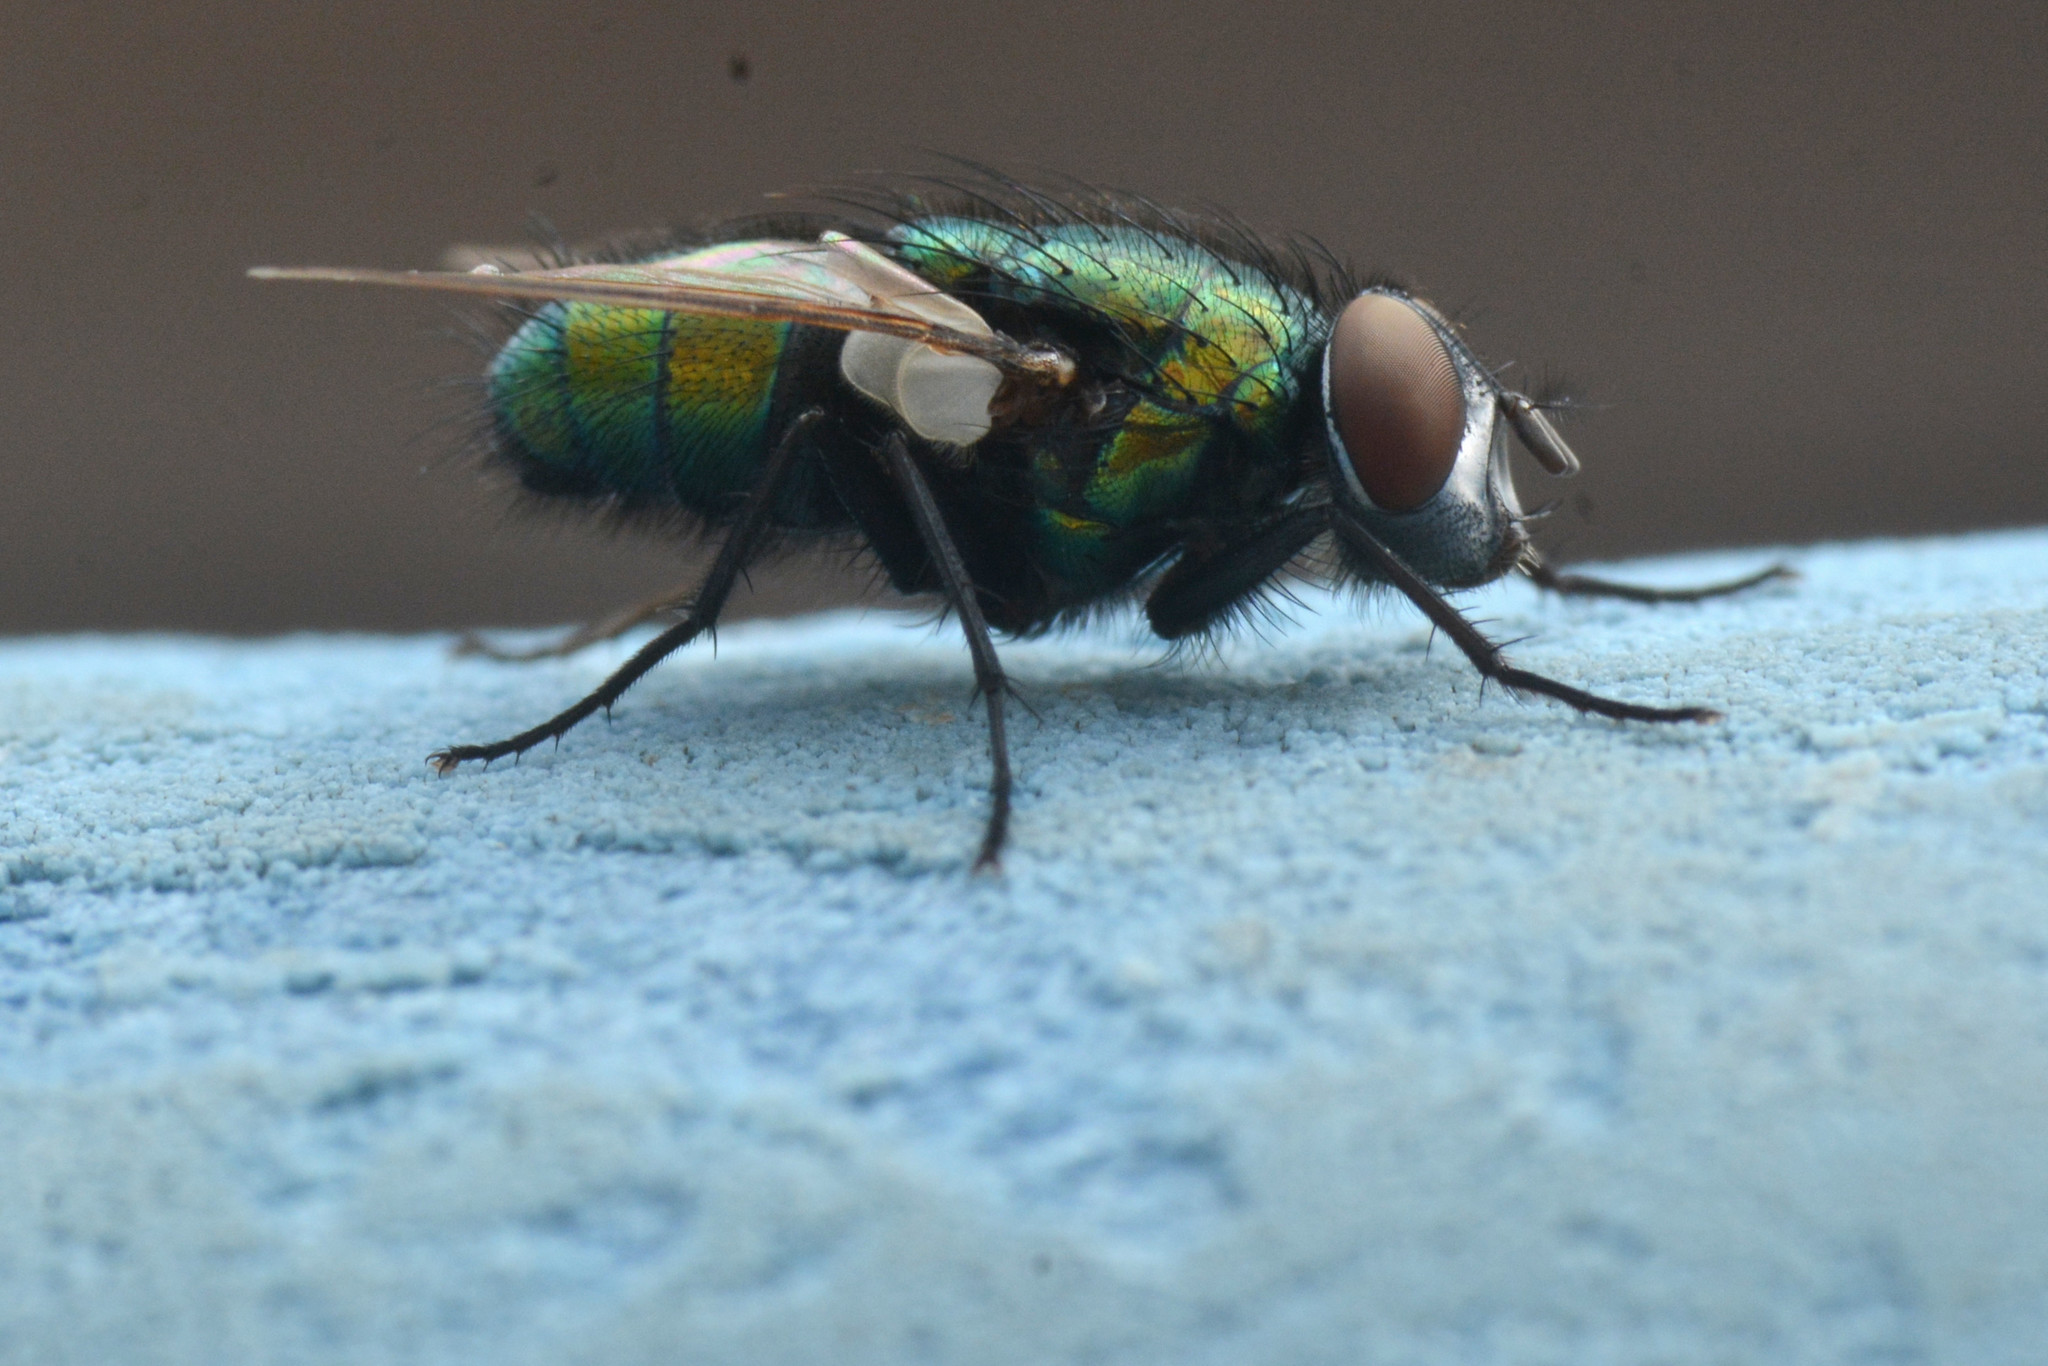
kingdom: Animalia
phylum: Arthropoda
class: Insecta
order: Diptera
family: Calliphoridae
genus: Lucilia
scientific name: Lucilia sericata
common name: Blow fly
